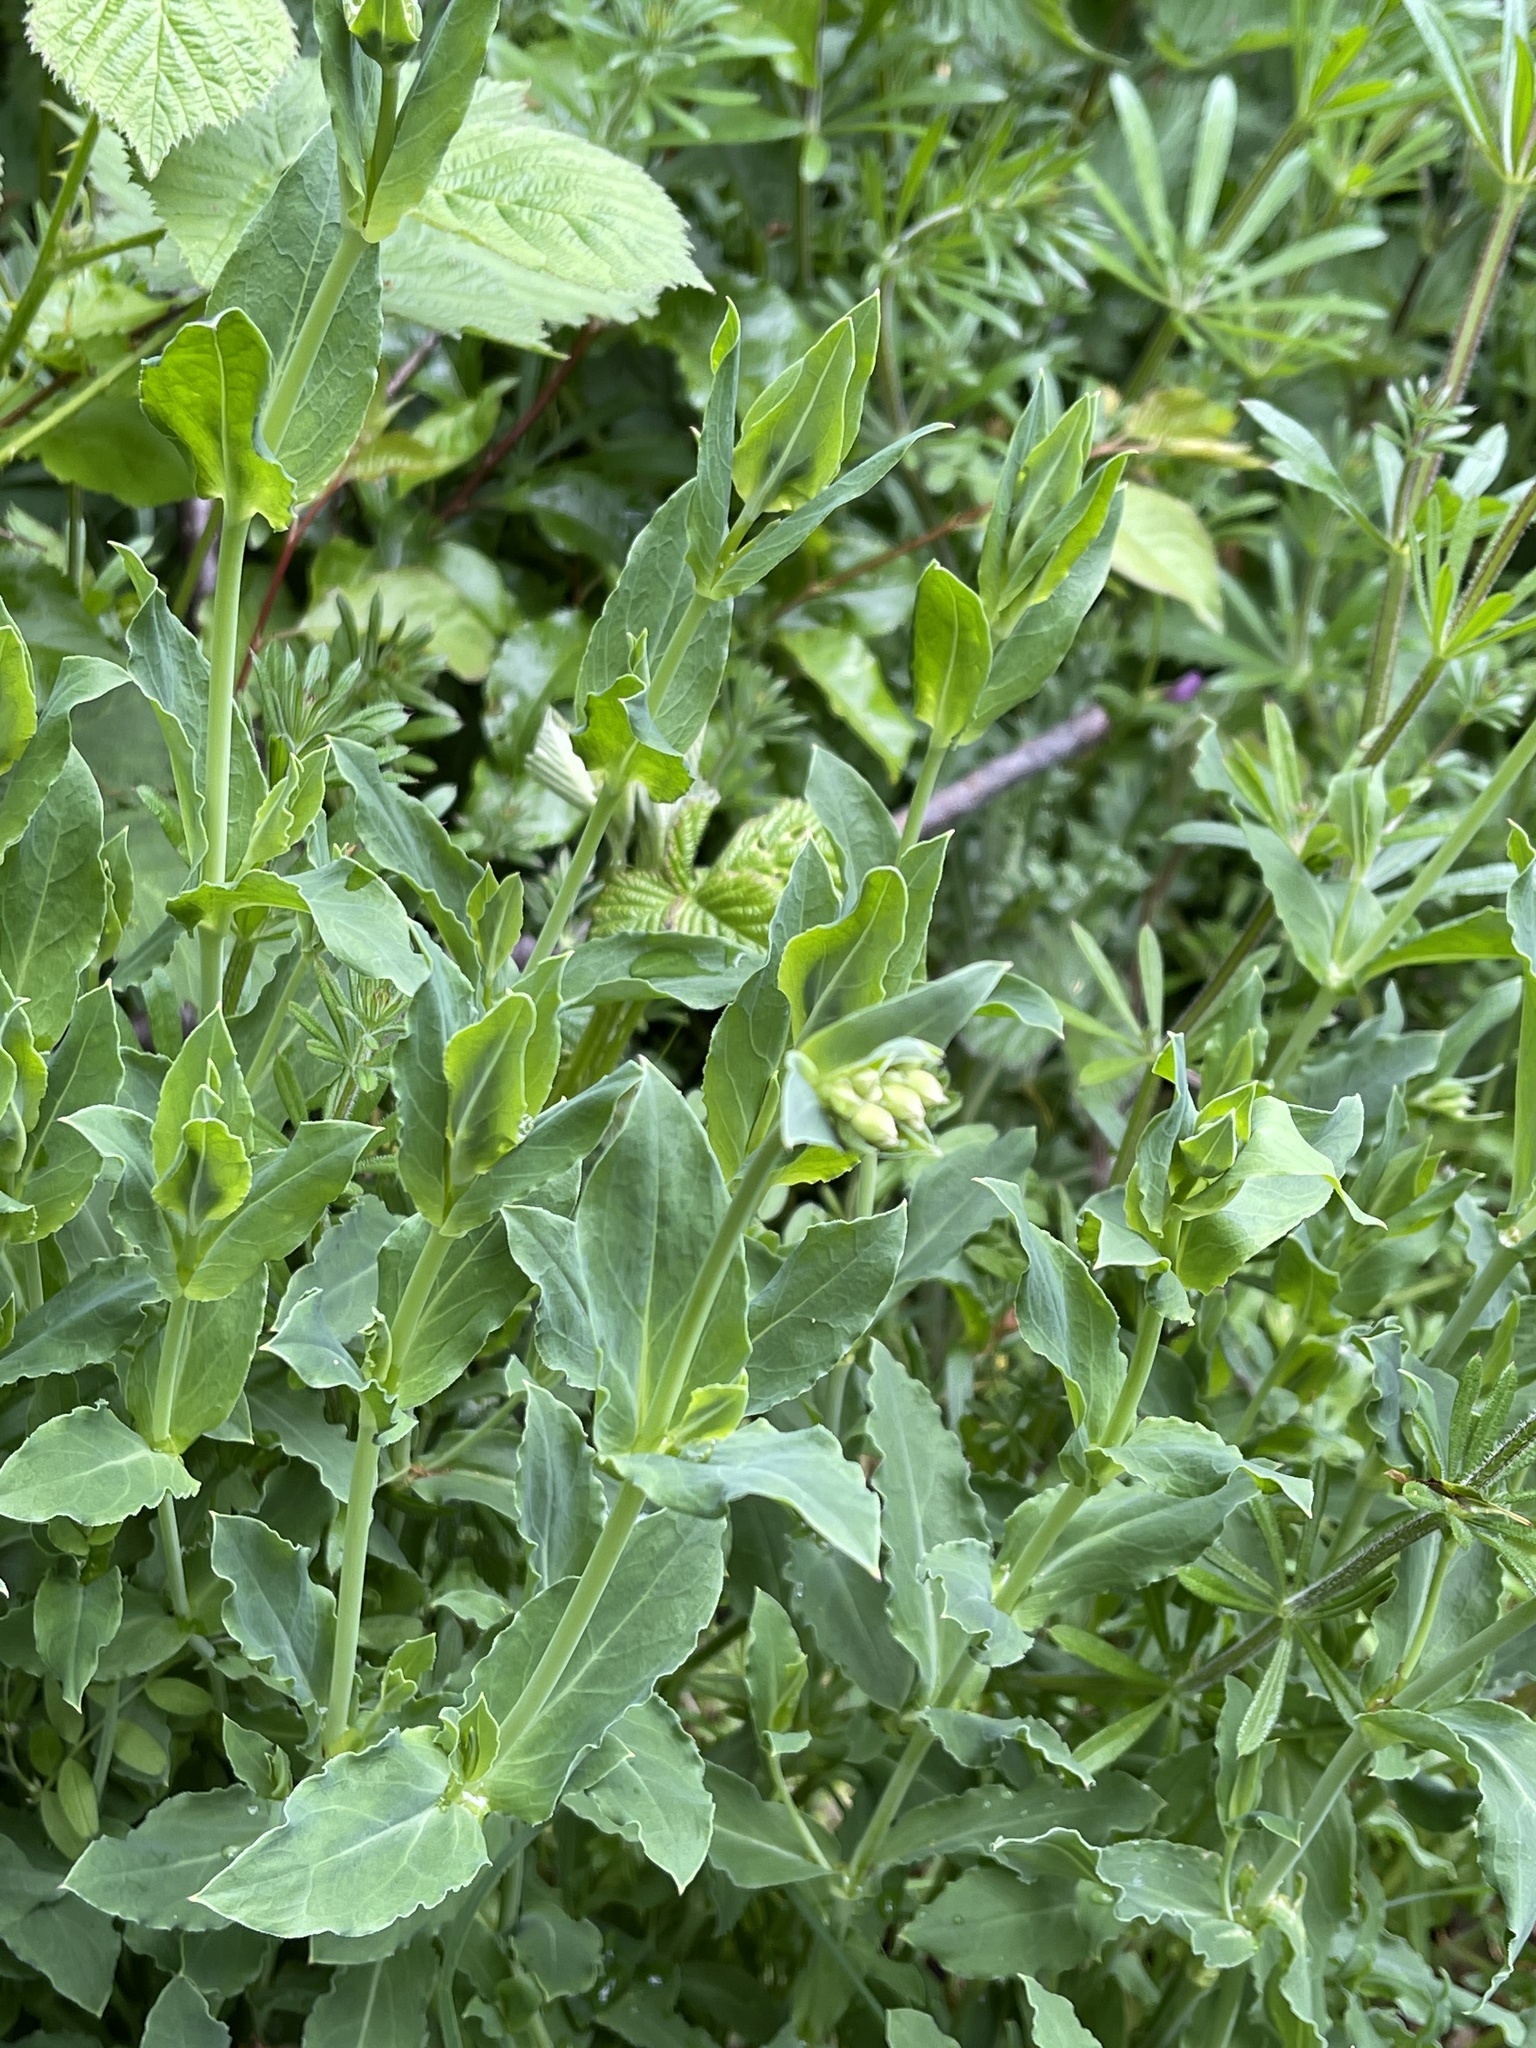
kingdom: Plantae
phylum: Tracheophyta
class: Magnoliopsida
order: Caryophyllales
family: Caryophyllaceae
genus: Silene
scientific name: Silene vulgaris
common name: Bladder campion
